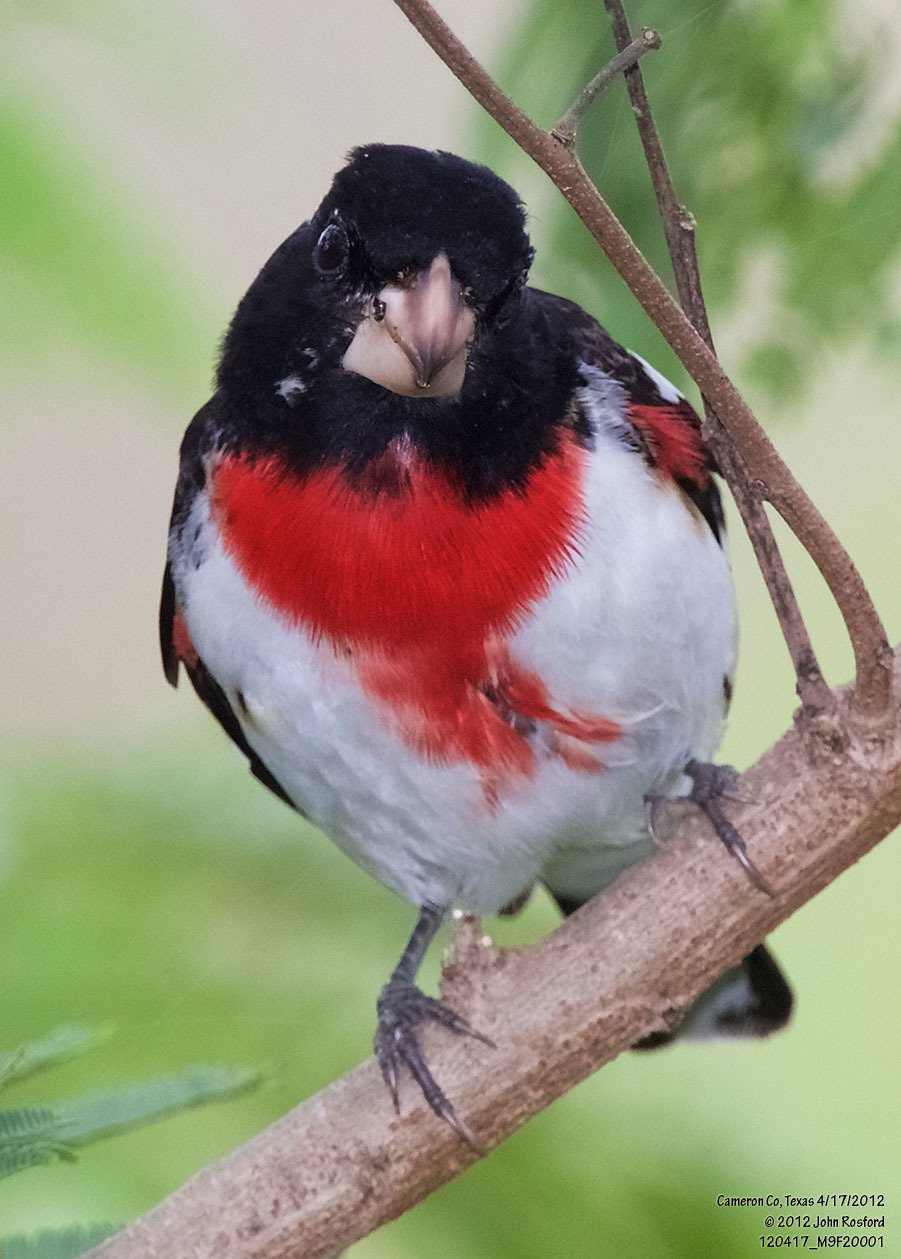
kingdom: Animalia
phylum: Chordata
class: Aves
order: Passeriformes
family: Cardinalidae
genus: Pheucticus
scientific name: Pheucticus ludovicianus
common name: Rose-breasted grosbeak
